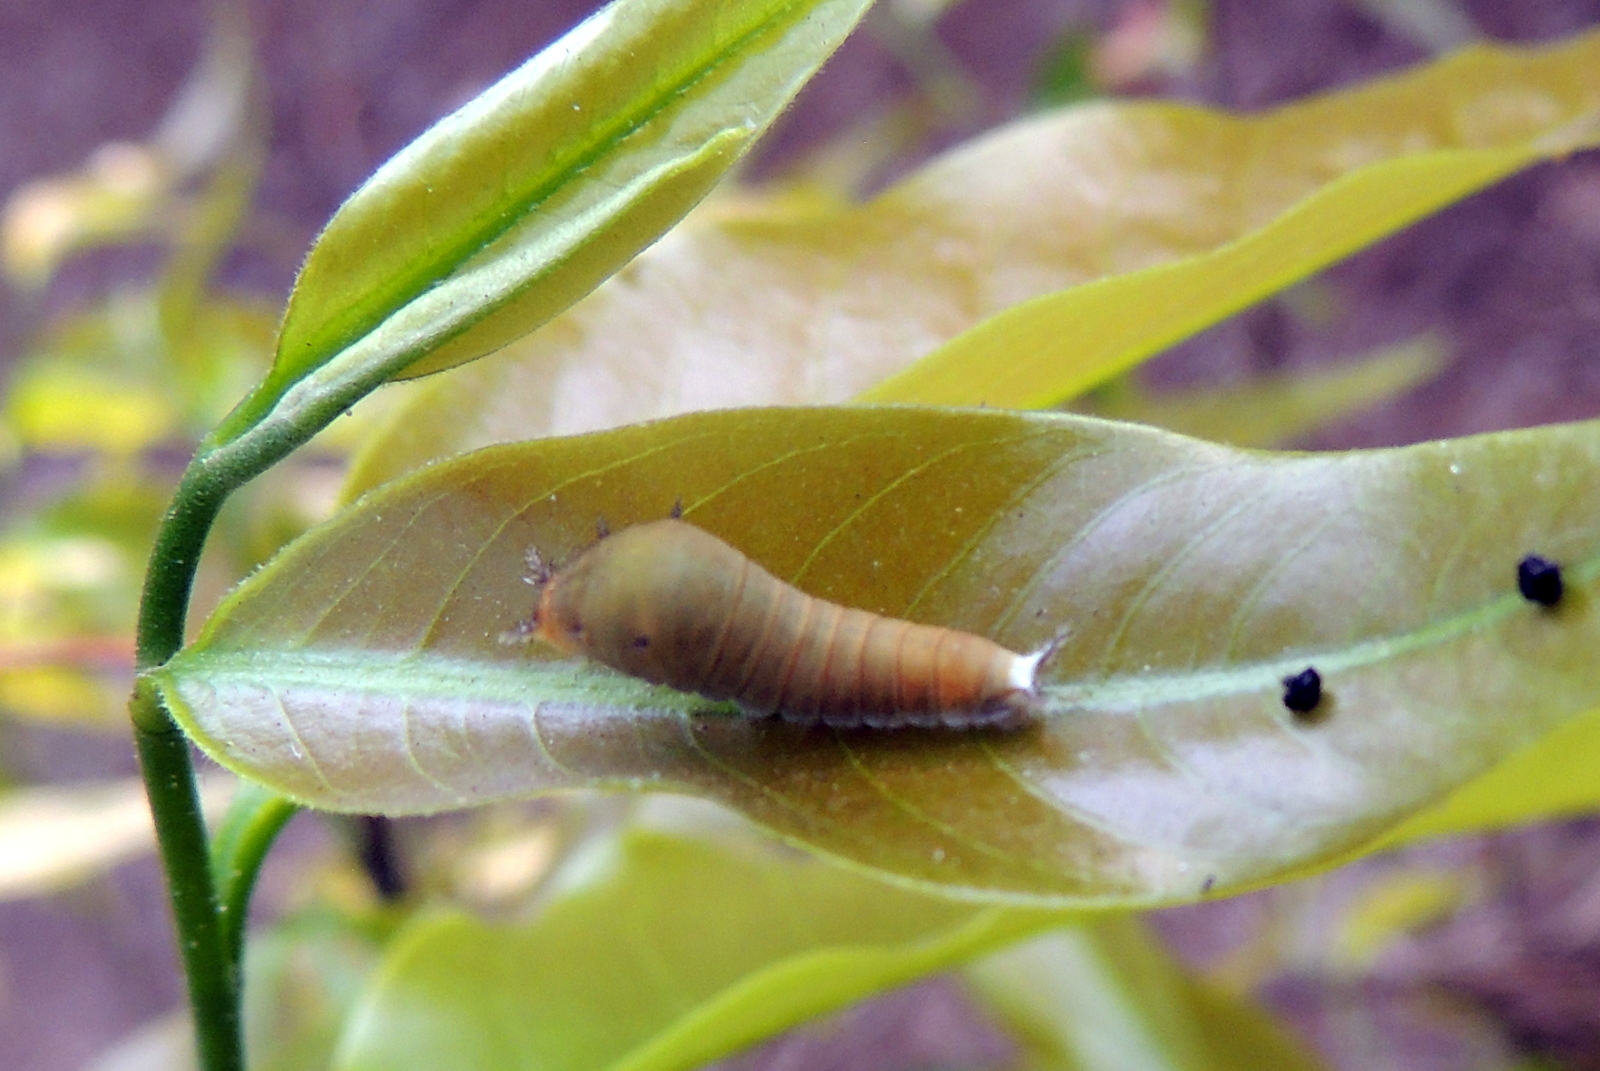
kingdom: Animalia
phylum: Arthropoda
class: Insecta
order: Lepidoptera
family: Papilionidae
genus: Graphium
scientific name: Graphium
